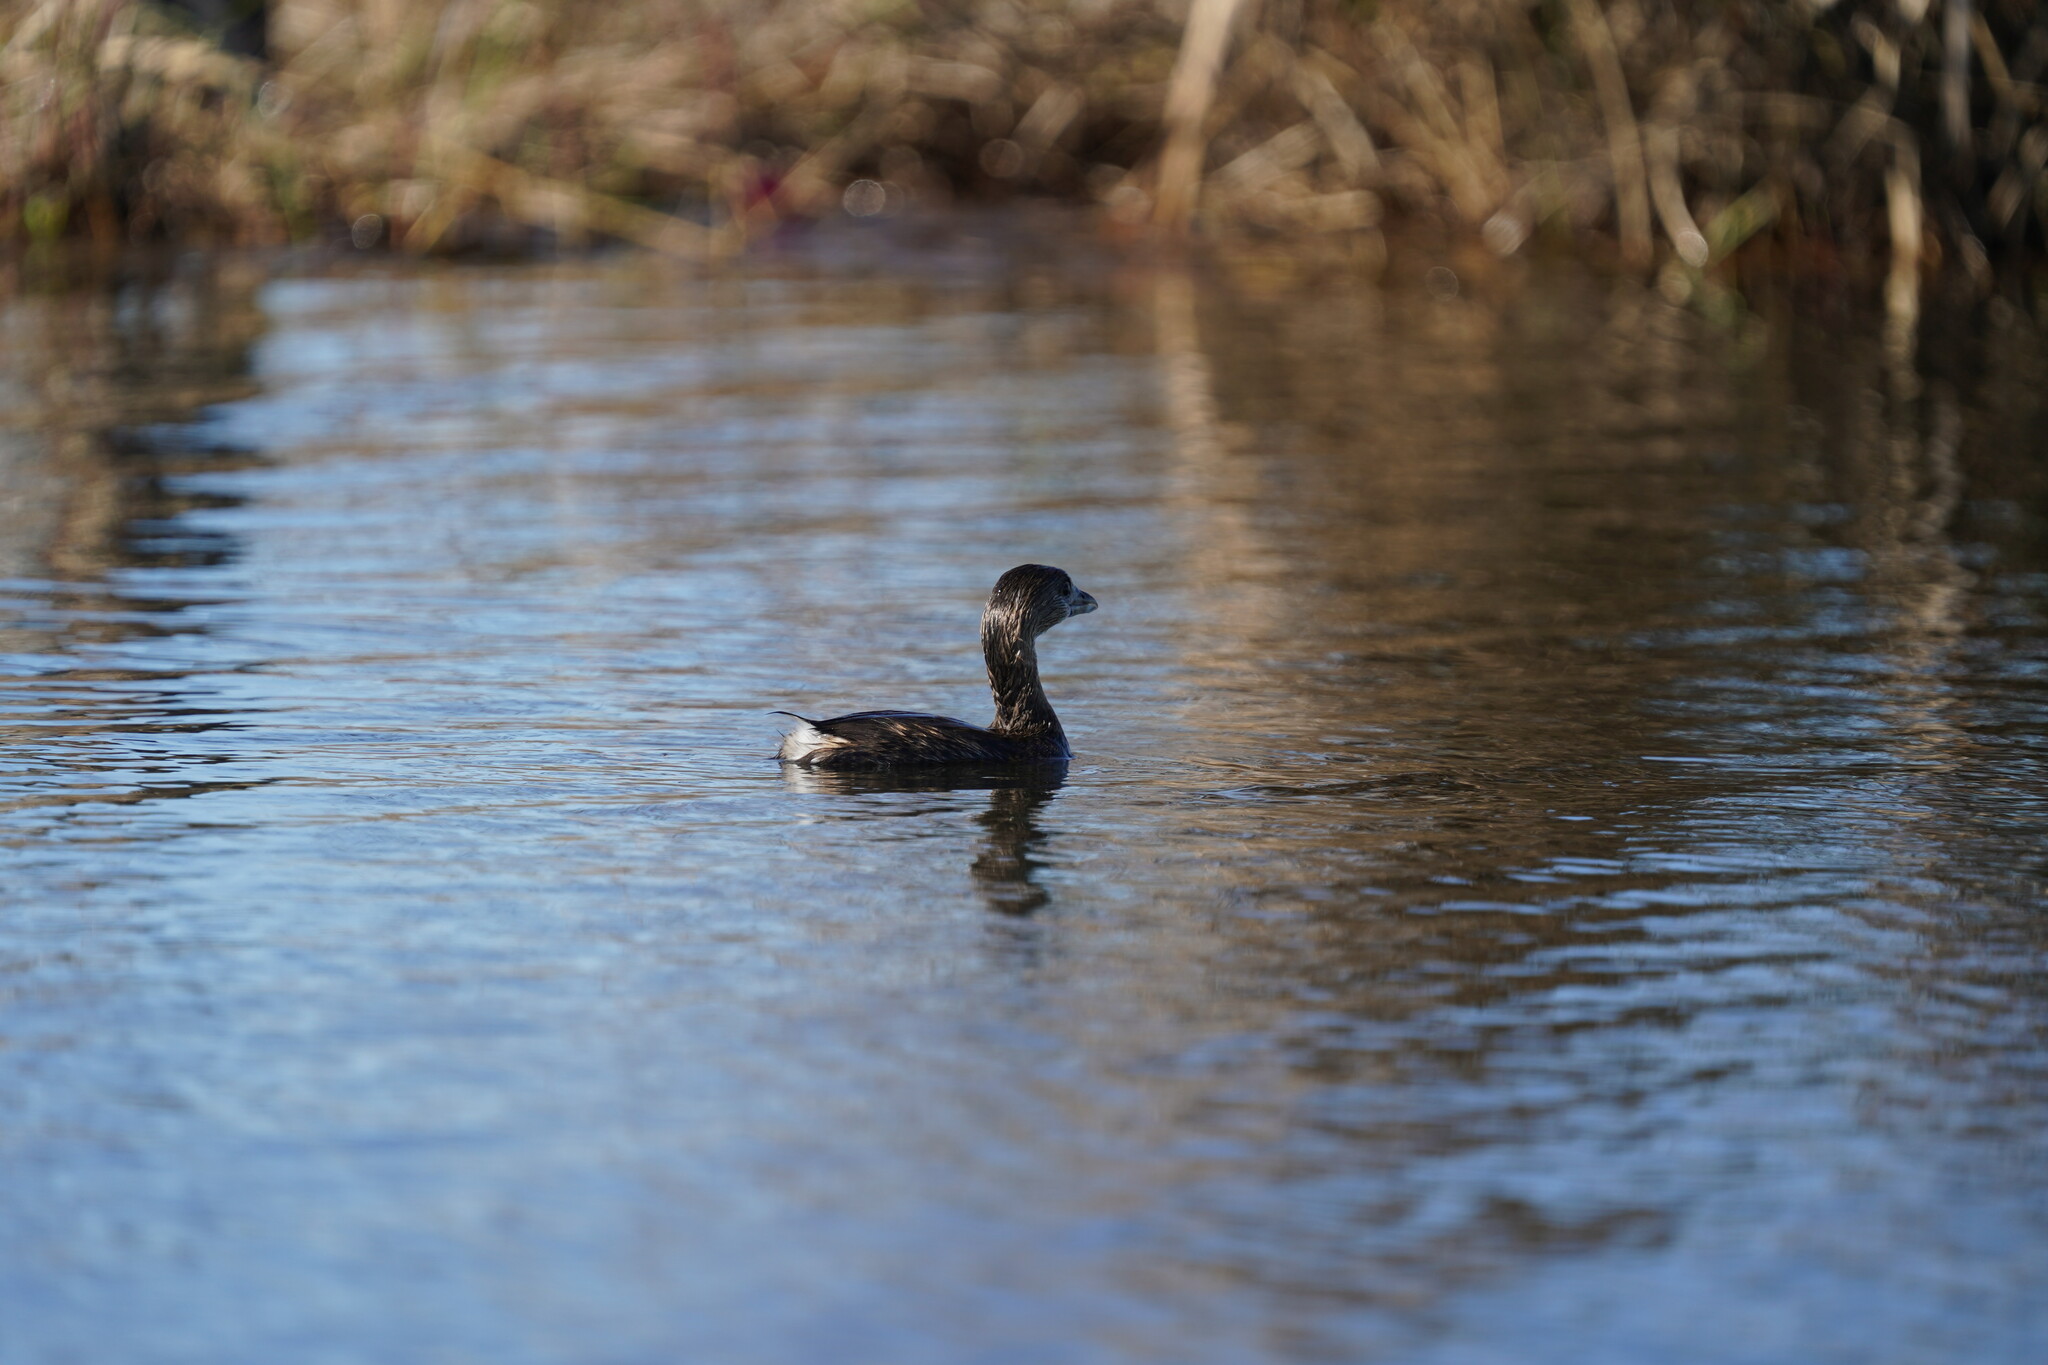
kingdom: Animalia
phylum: Chordata
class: Aves
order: Podicipediformes
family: Podicipedidae
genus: Podilymbus
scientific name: Podilymbus podiceps
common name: Pied-billed grebe
